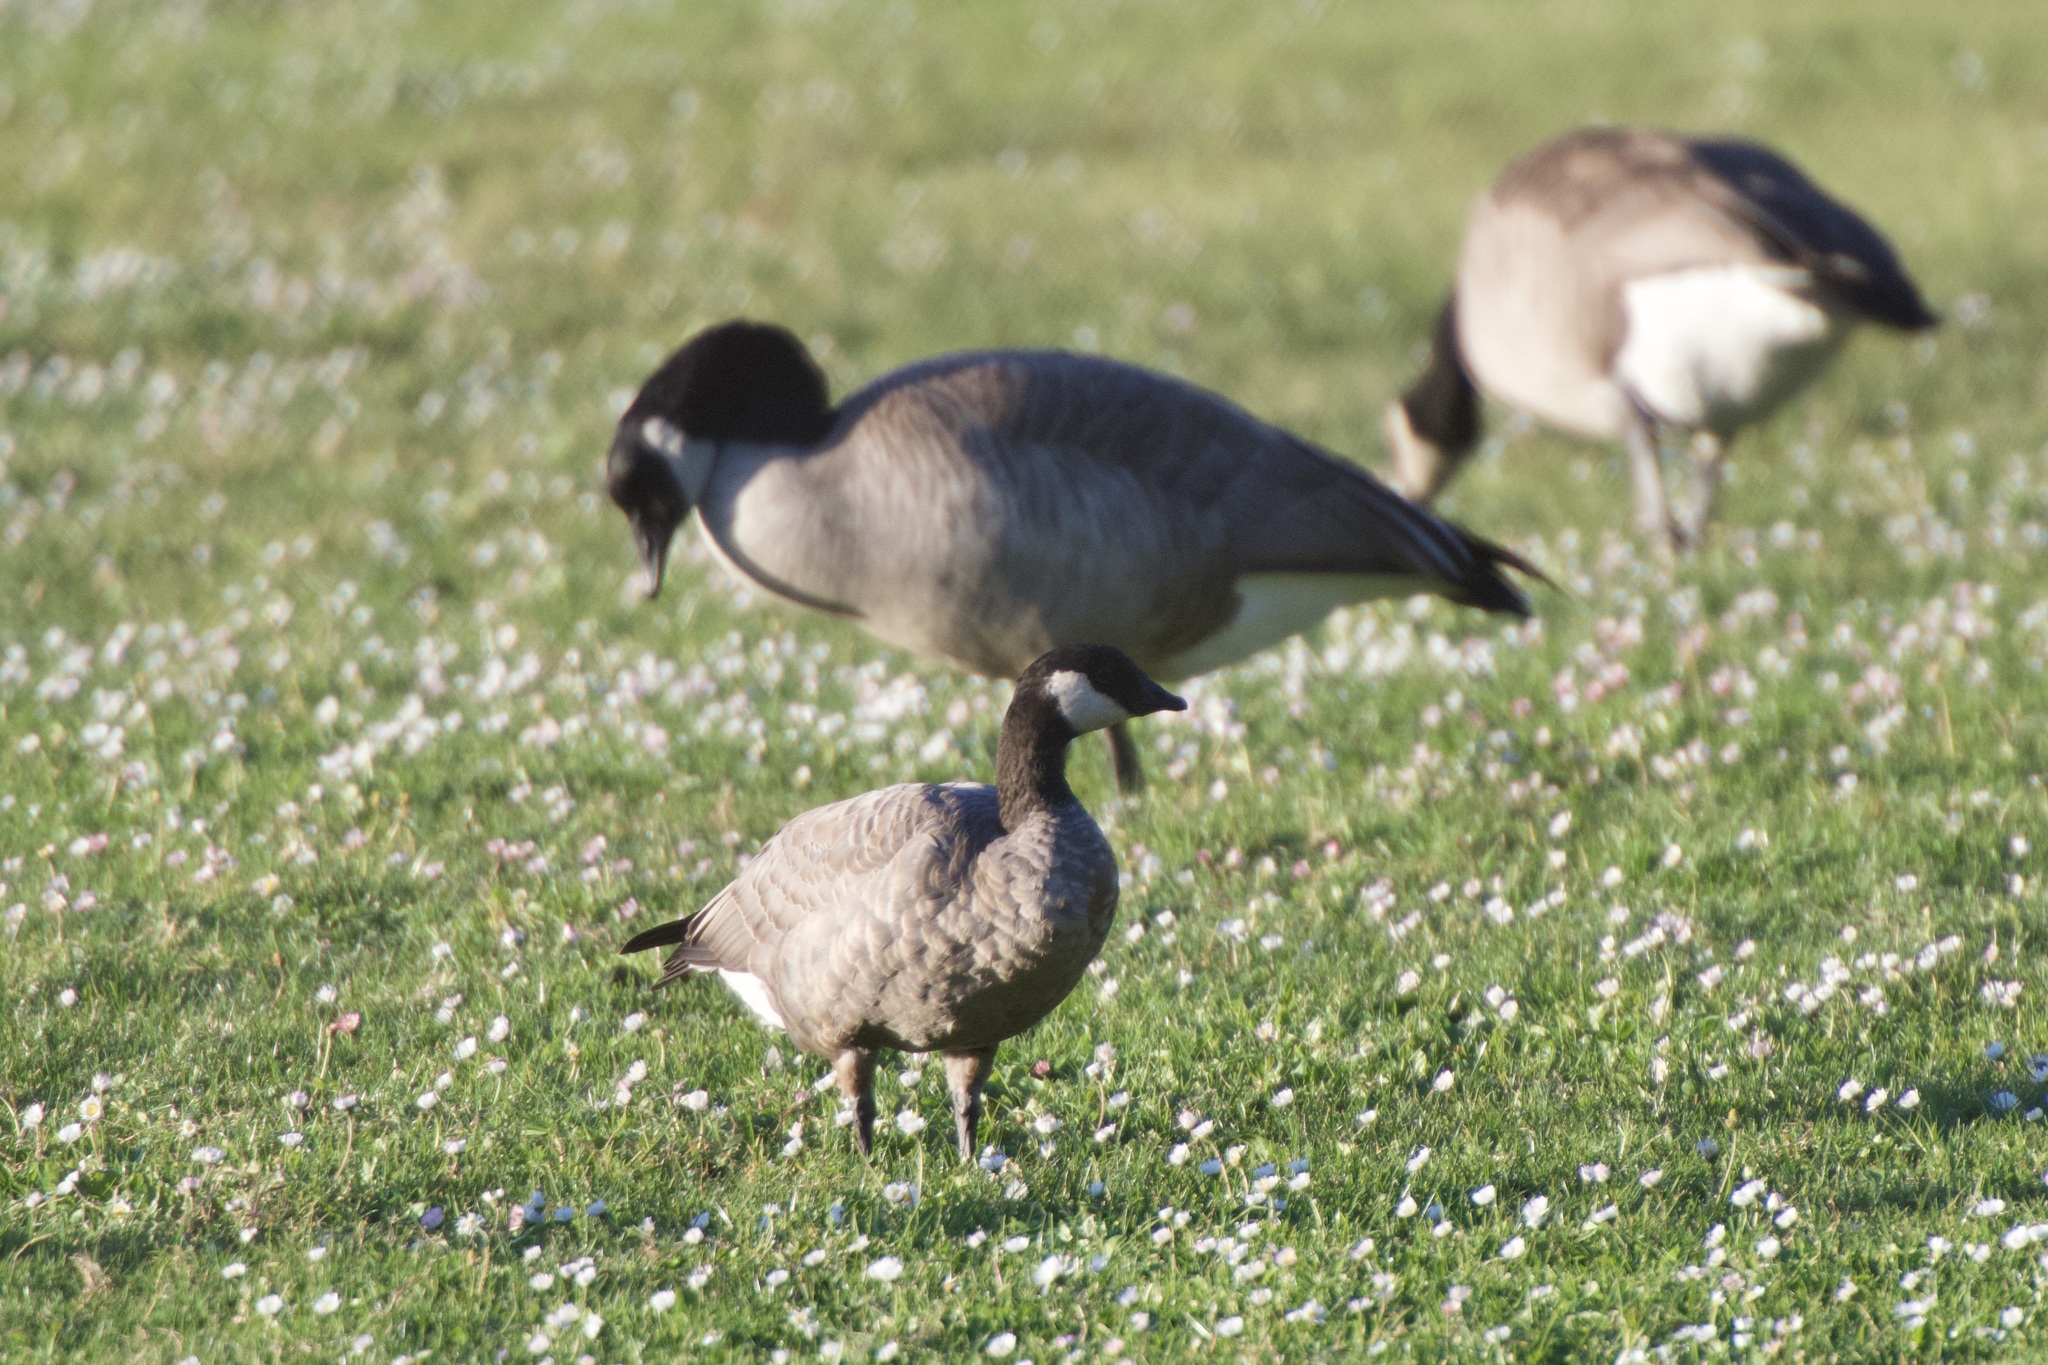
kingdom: Animalia
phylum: Chordata
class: Aves
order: Anseriformes
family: Anatidae
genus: Branta
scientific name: Branta hutchinsii
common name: Cackling goose
